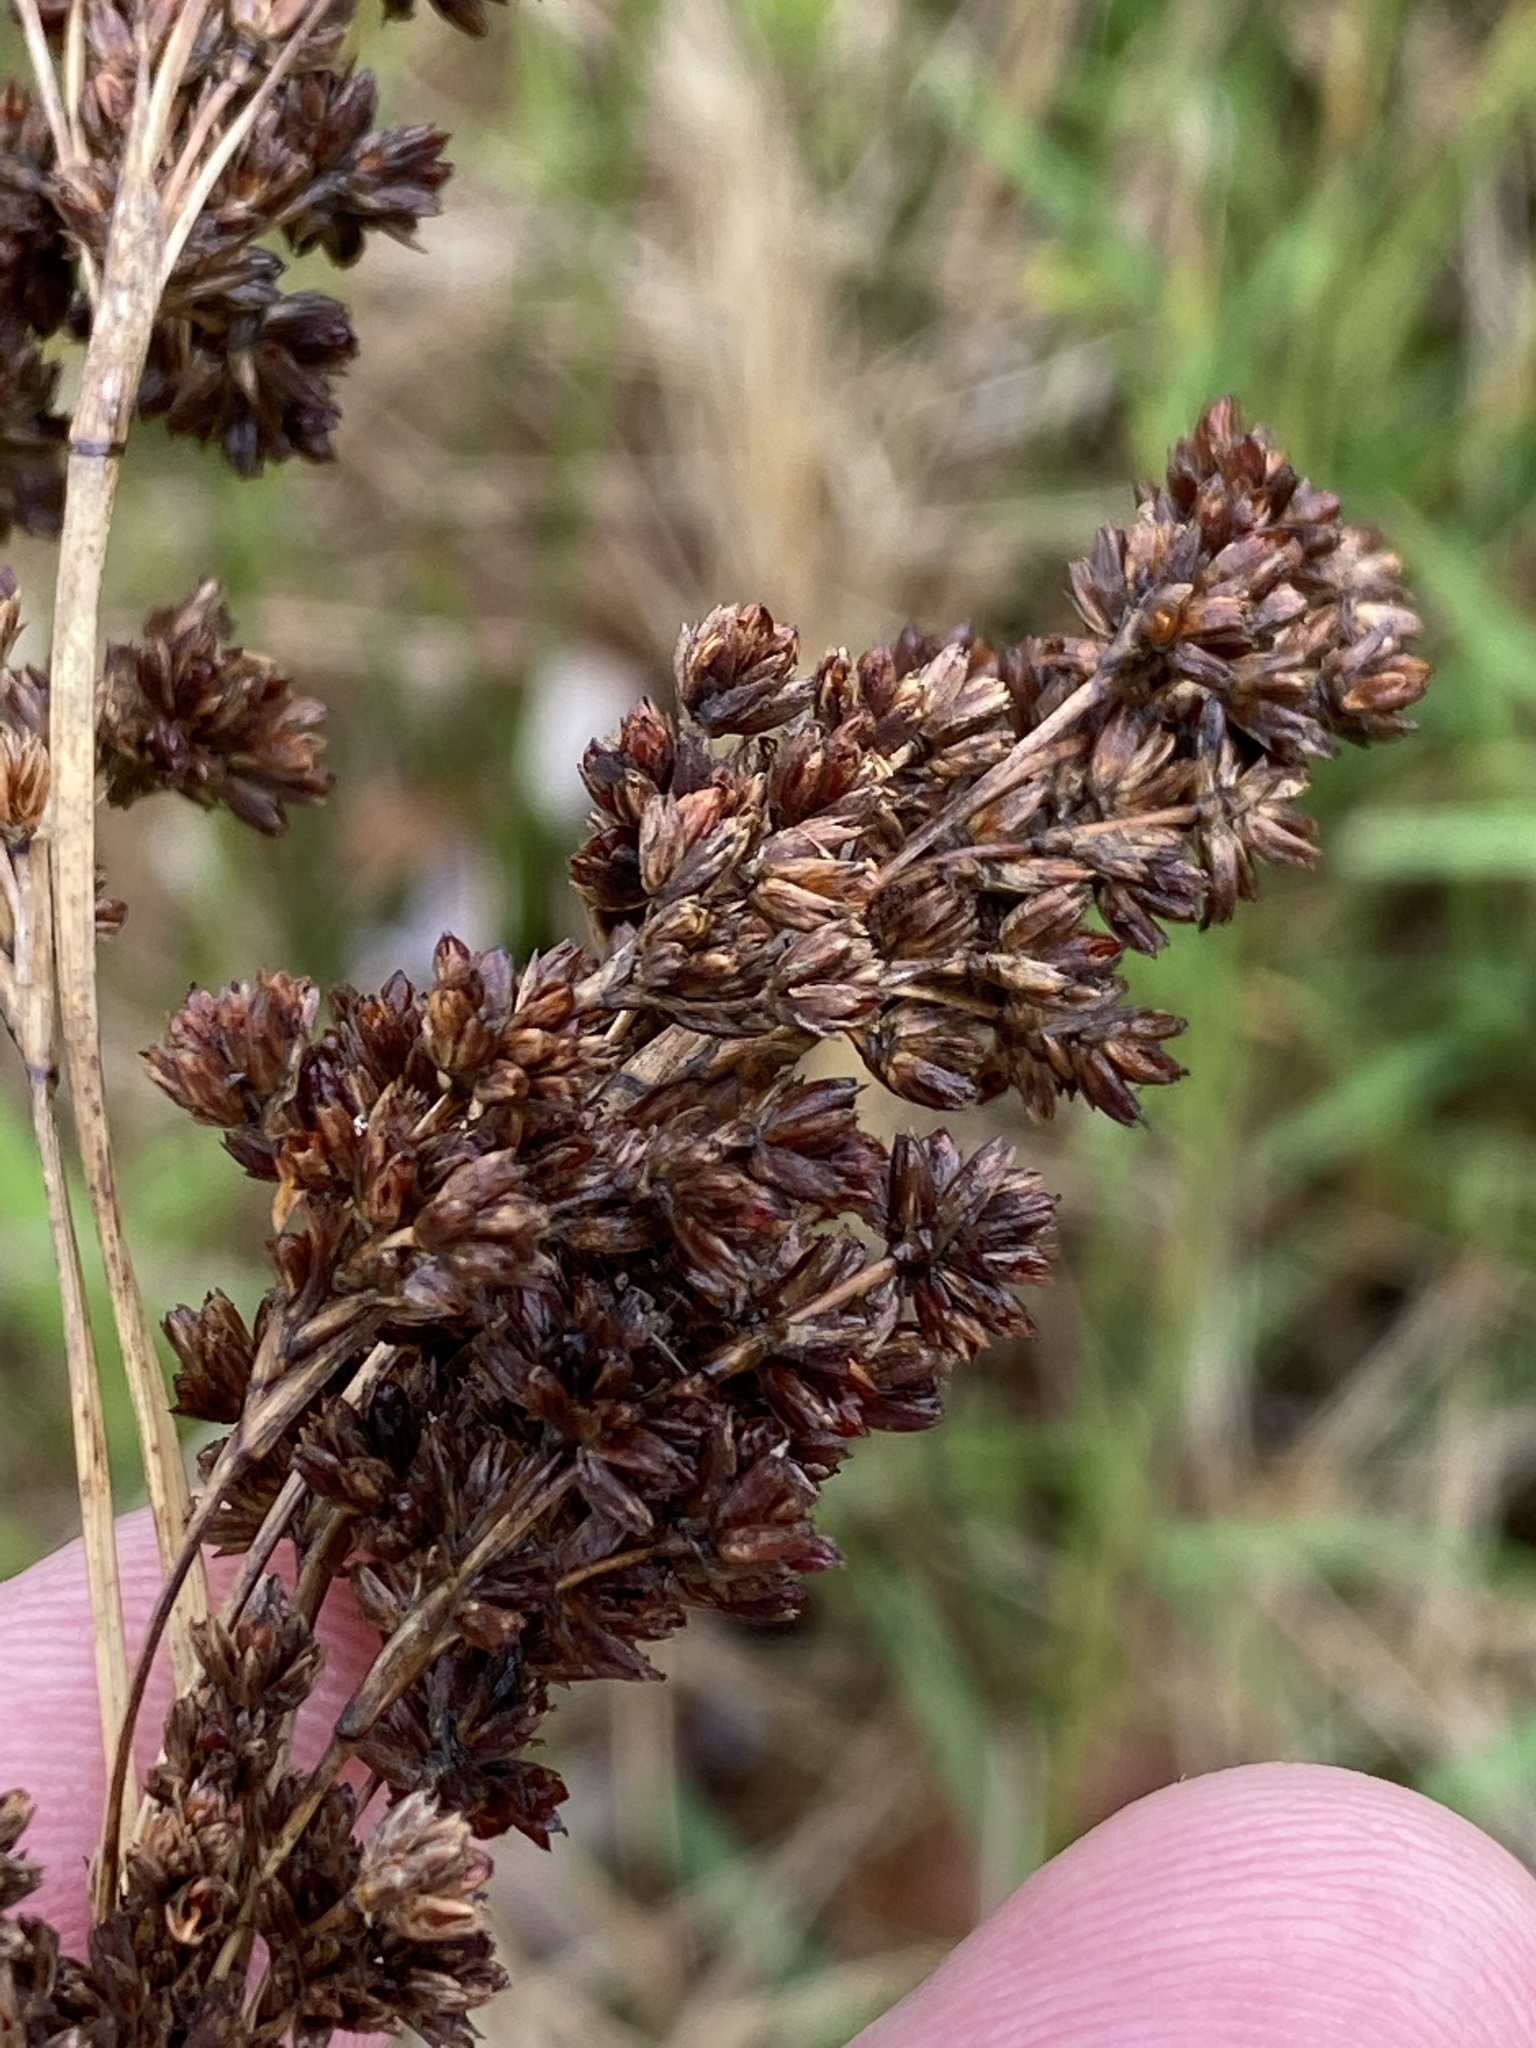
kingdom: Plantae
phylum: Tracheophyta
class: Liliopsida
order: Poales
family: Juncaceae
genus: Juncus
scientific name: Juncus kraussii
